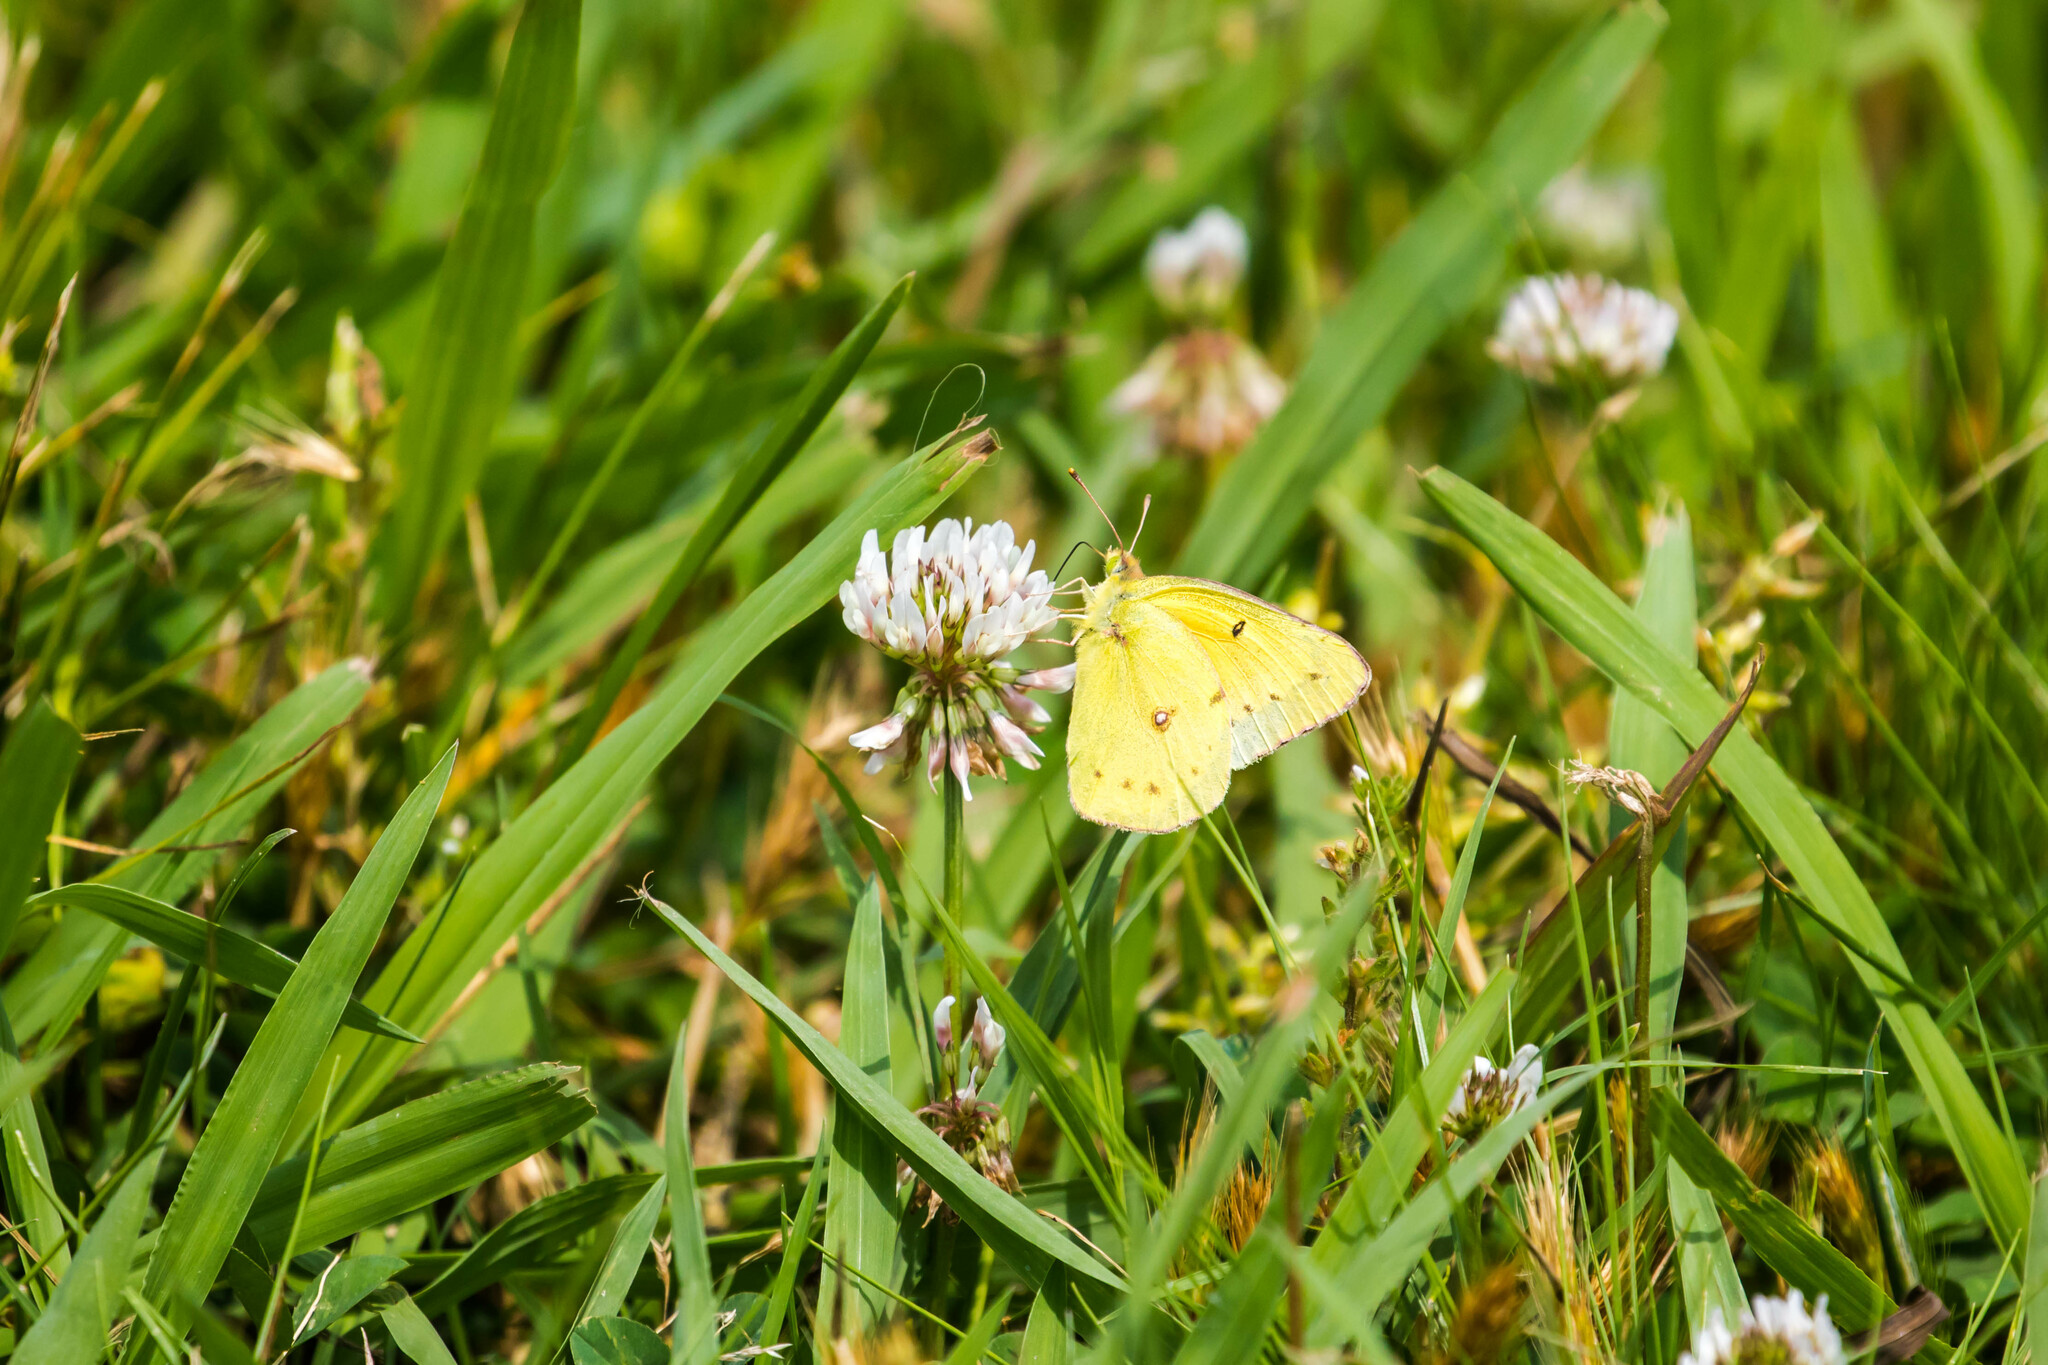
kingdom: Animalia
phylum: Arthropoda
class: Insecta
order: Lepidoptera
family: Pieridae
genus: Colias
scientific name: Colias eurytheme
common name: Alfalfa butterfly
